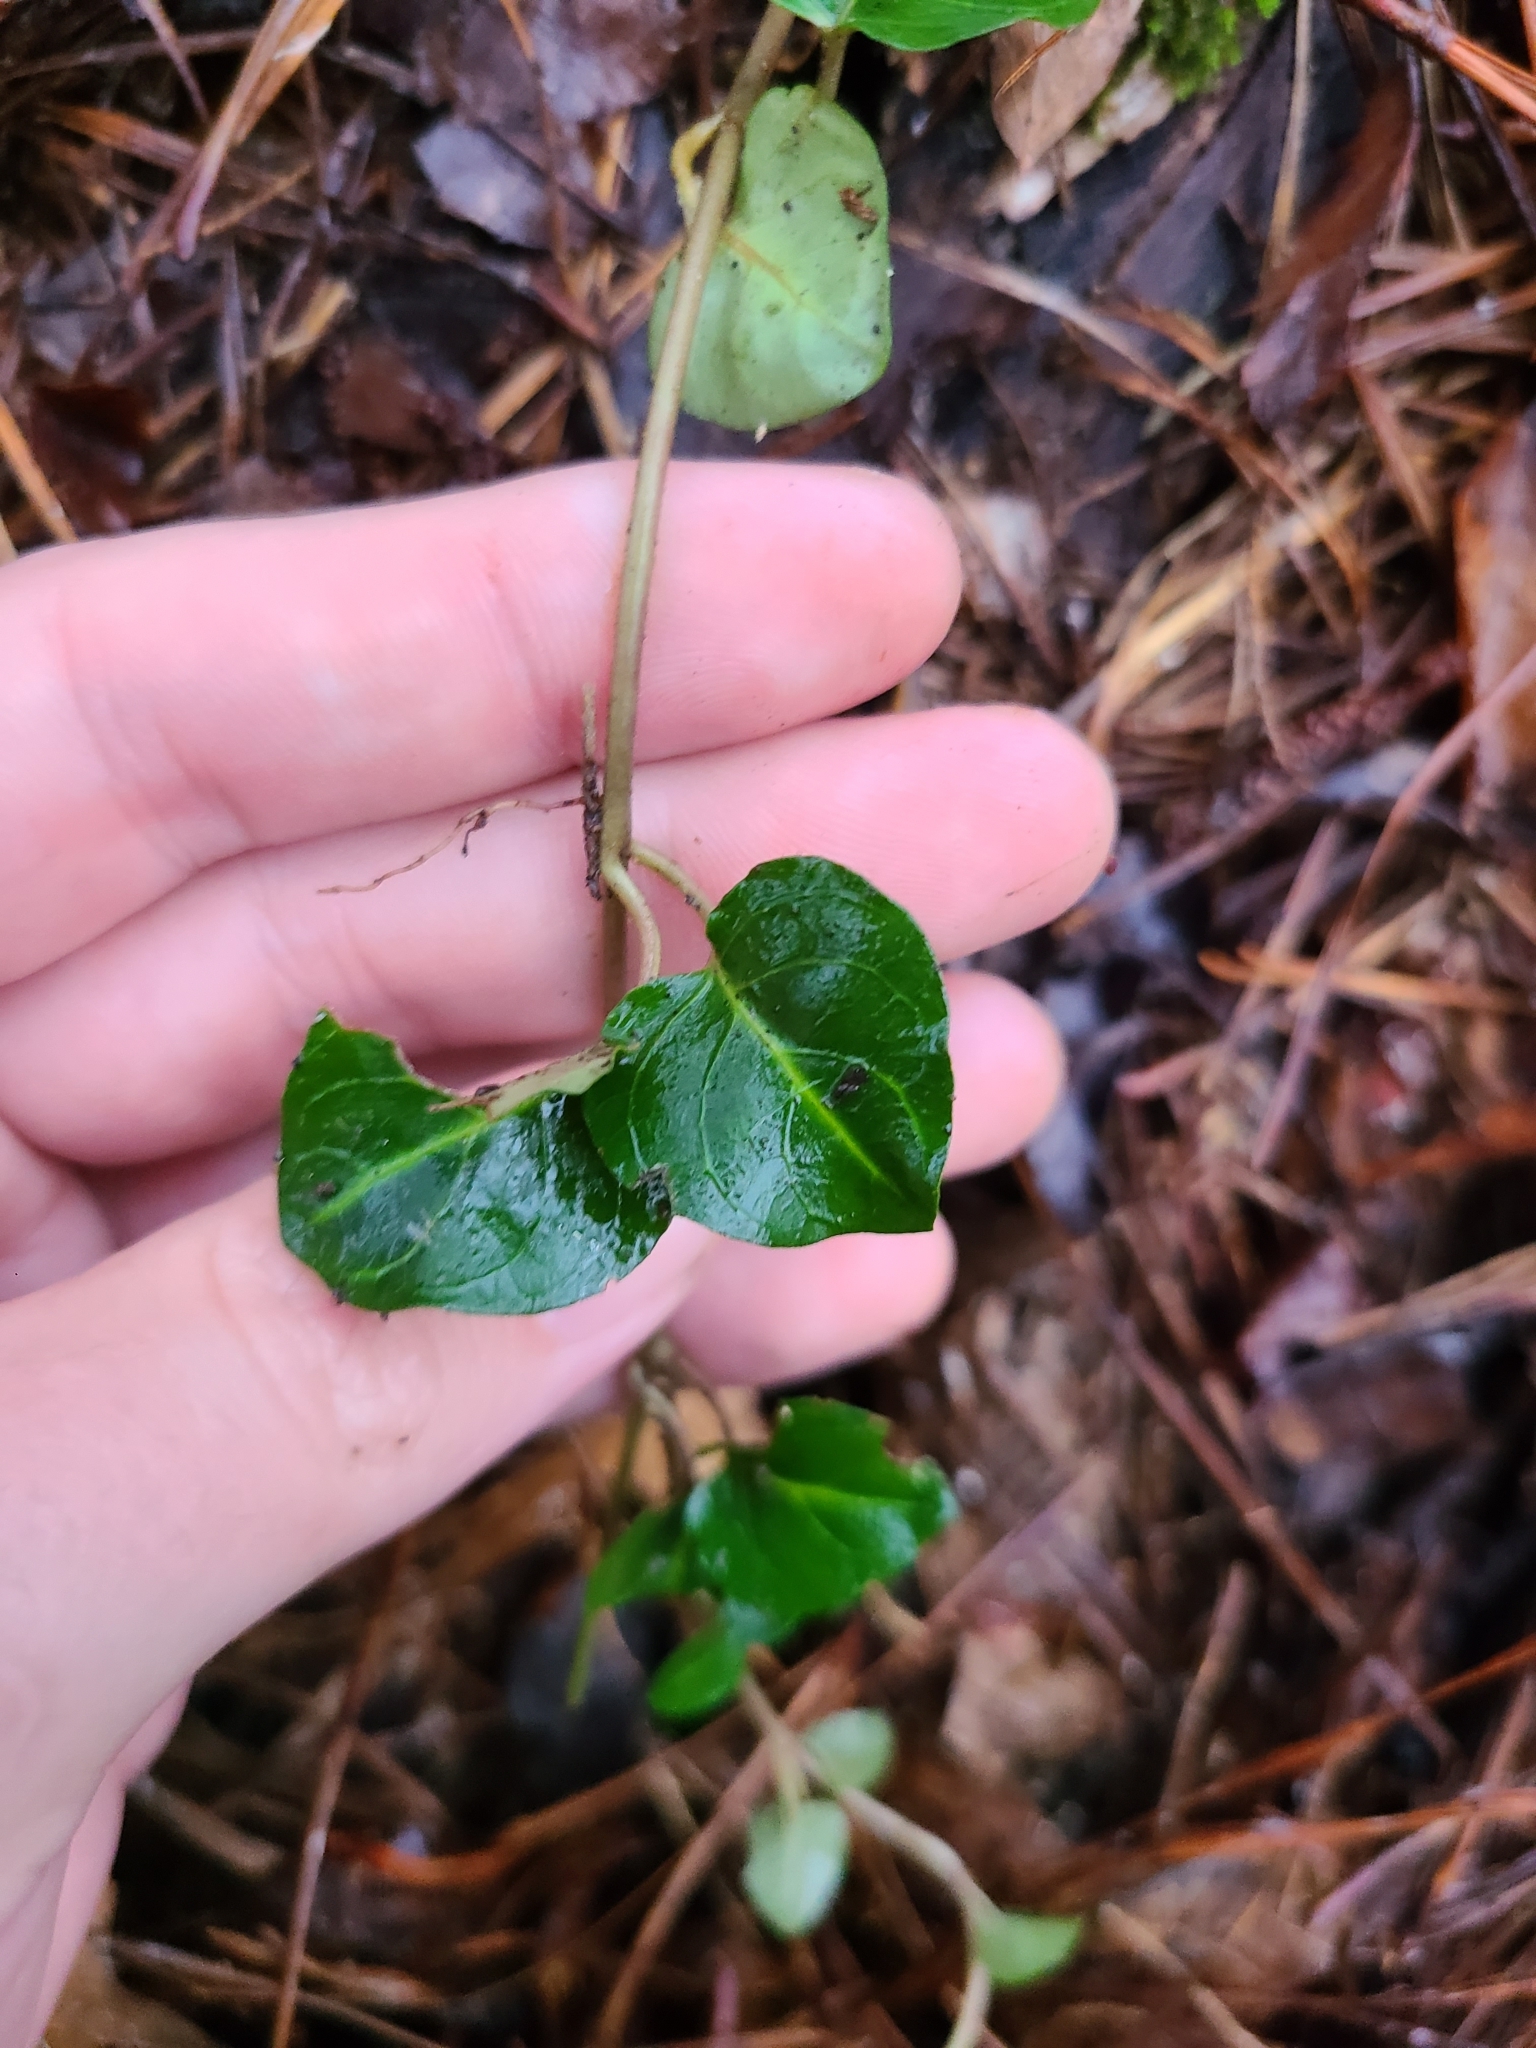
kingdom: Plantae
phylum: Tracheophyta
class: Magnoliopsida
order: Gentianales
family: Rubiaceae
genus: Mitchella
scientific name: Mitchella repens
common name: Partridge-berry
